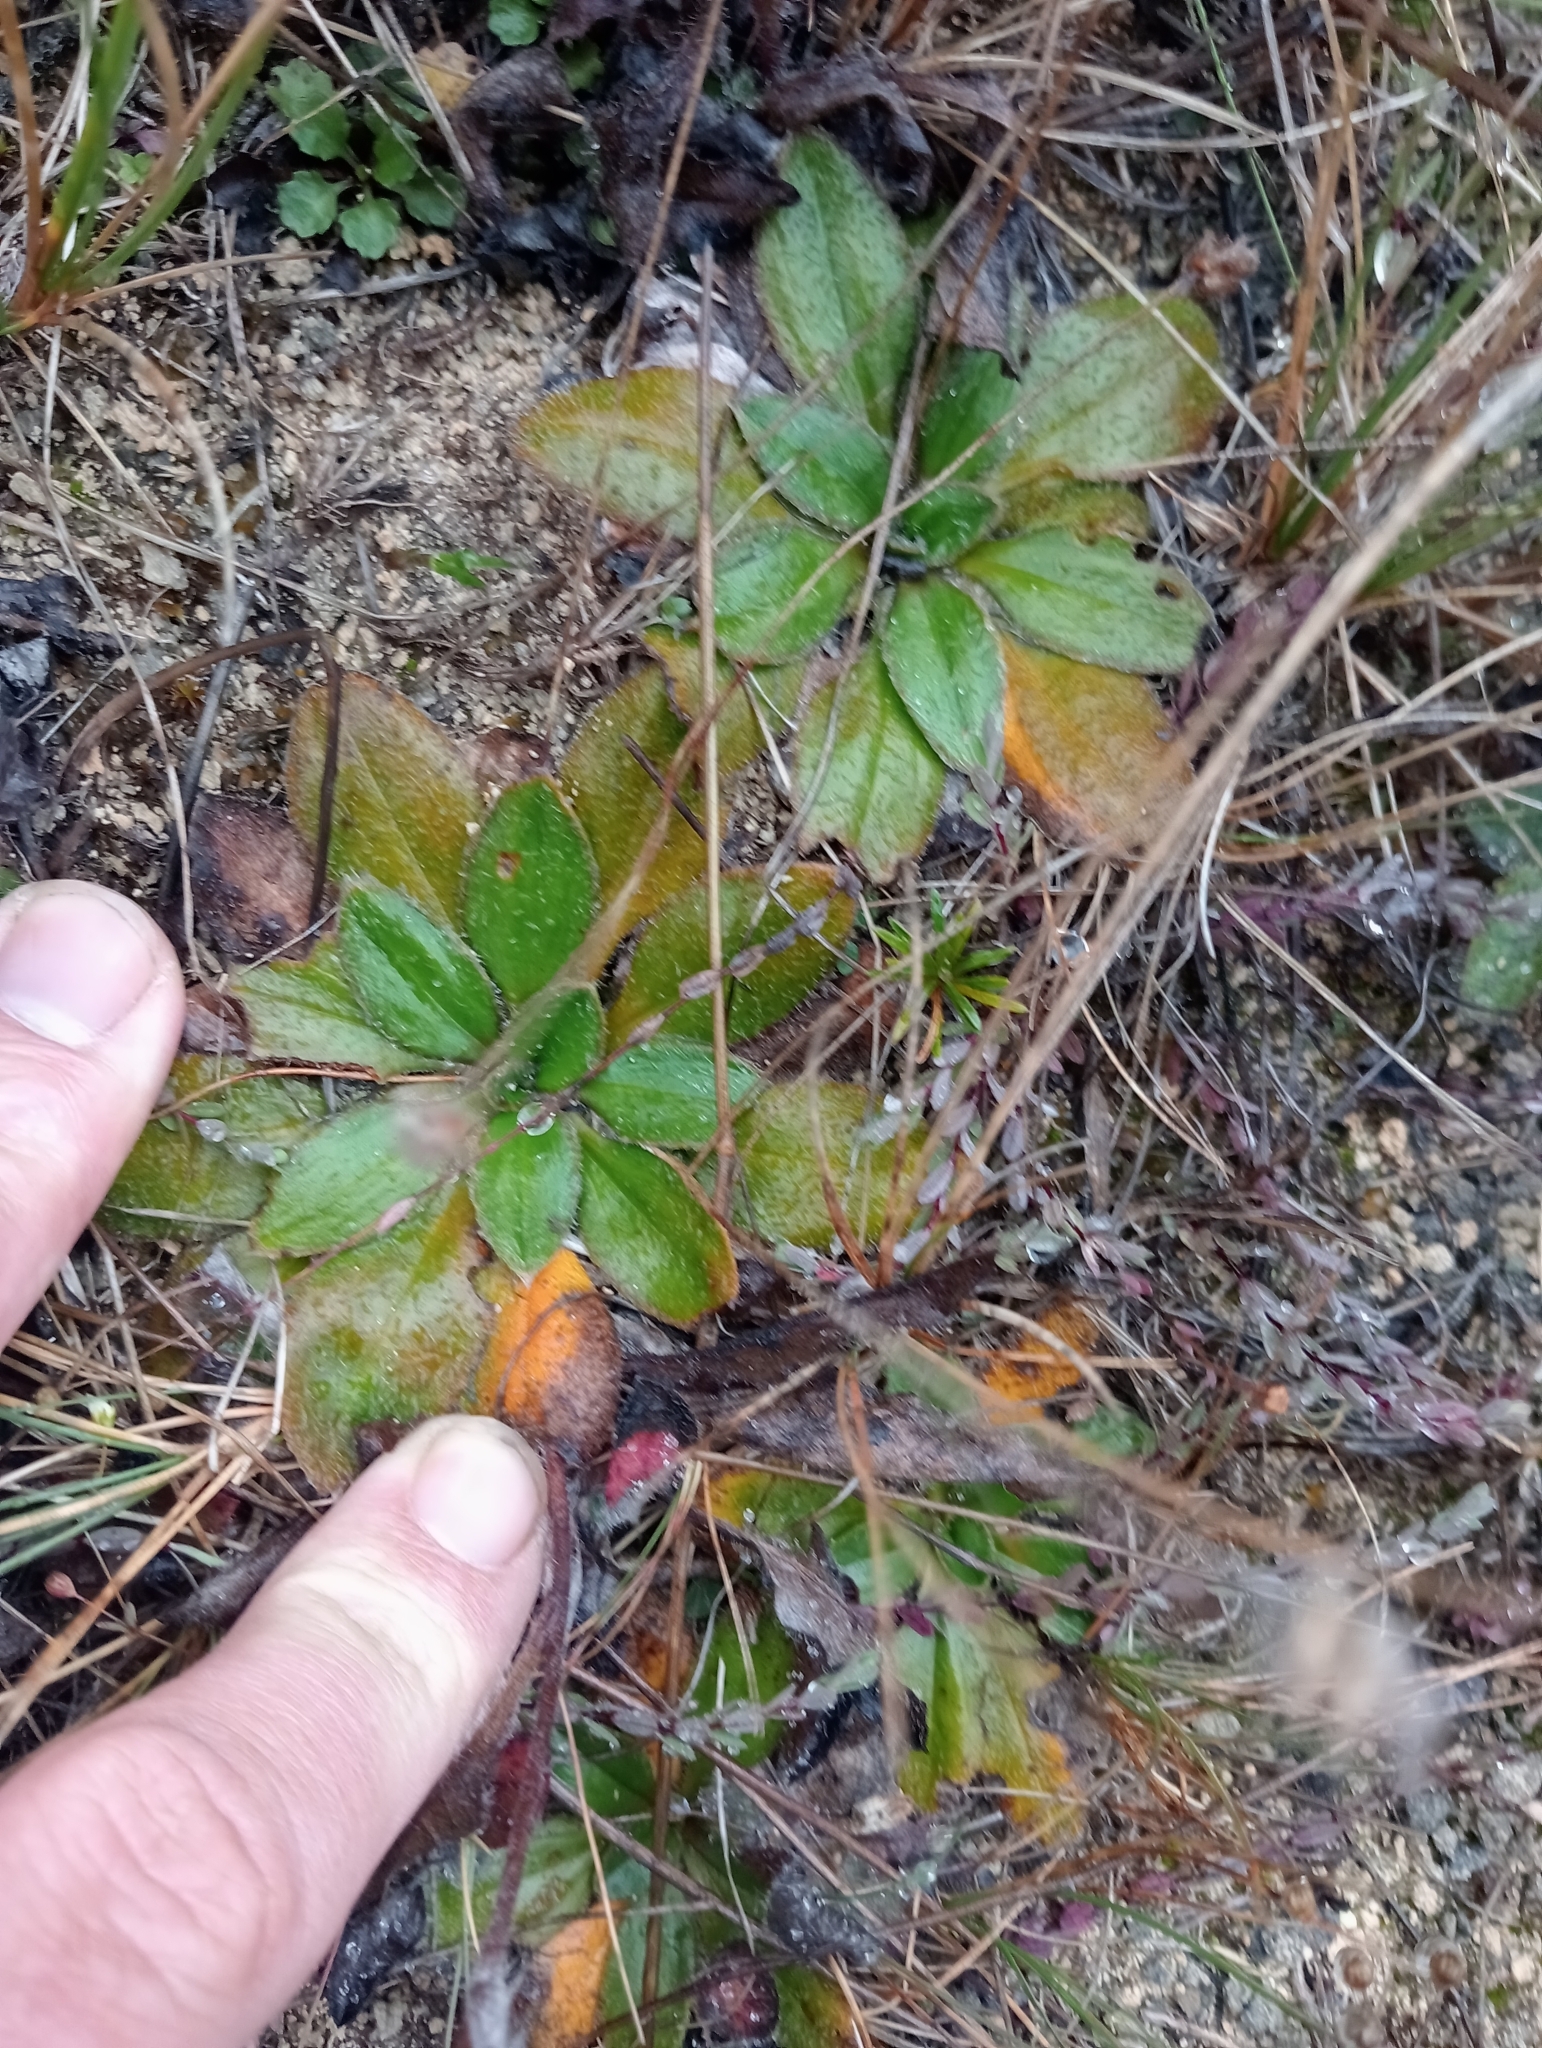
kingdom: Plantae
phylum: Tracheophyta
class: Magnoliopsida
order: Lamiales
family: Plantaginaceae
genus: Plantago
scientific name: Plantago spathulata
